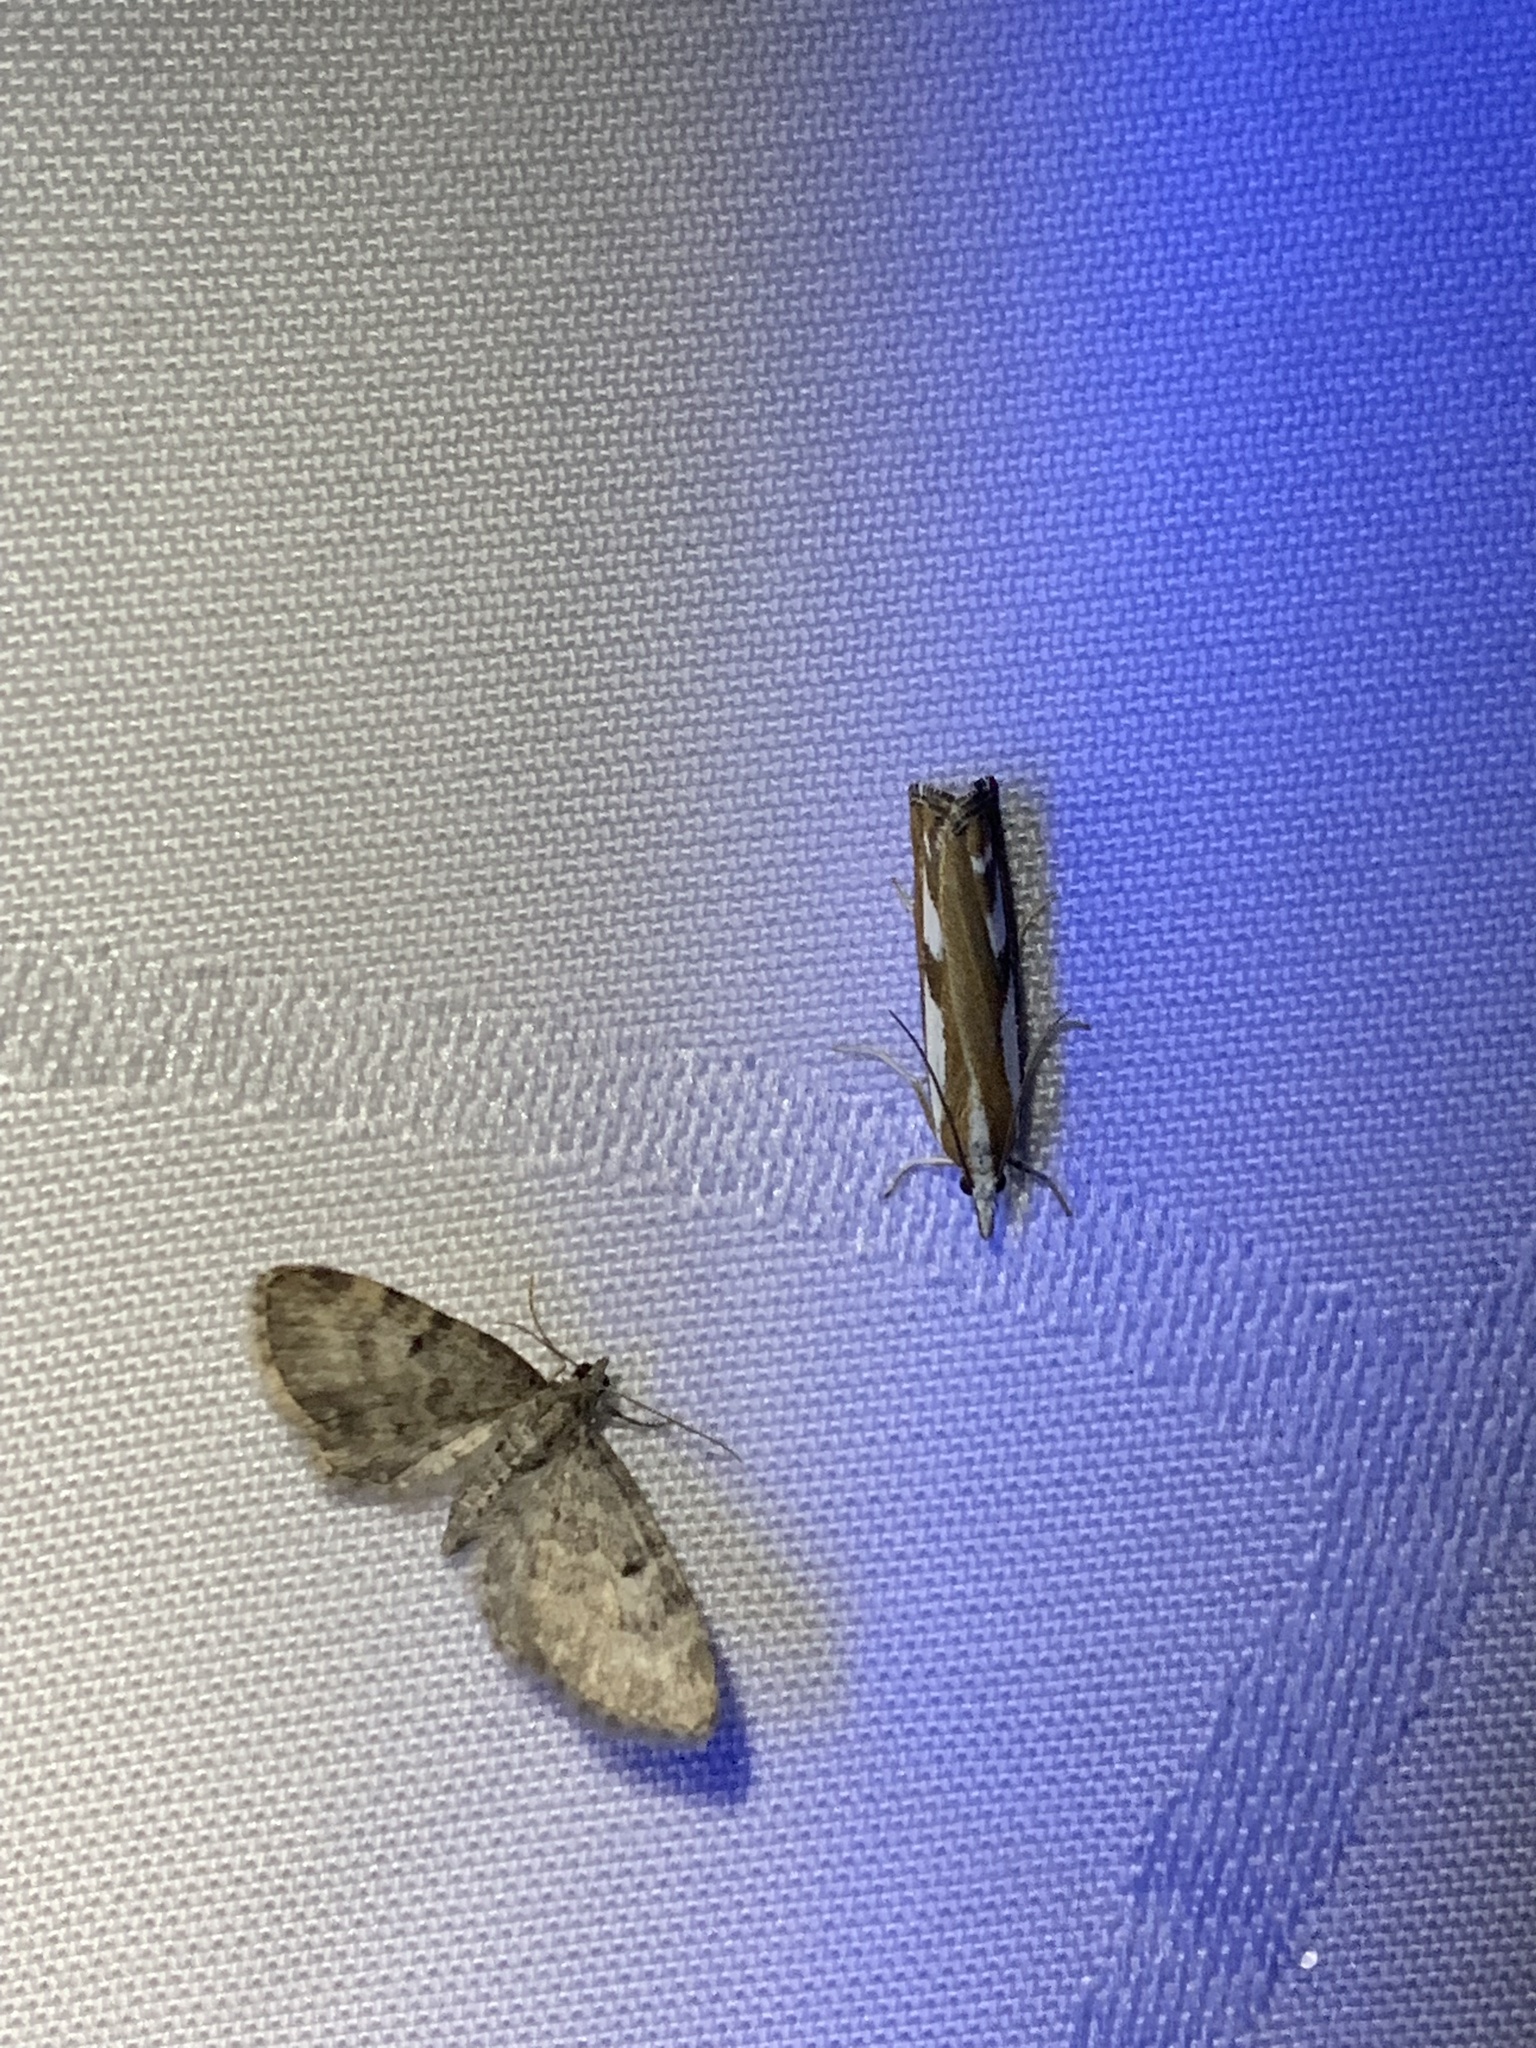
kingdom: Animalia
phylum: Arthropoda
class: Insecta
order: Lepidoptera
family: Crambidae
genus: Catoptria
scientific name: Catoptria latiradiellus
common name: Two-banded catoptria moth
